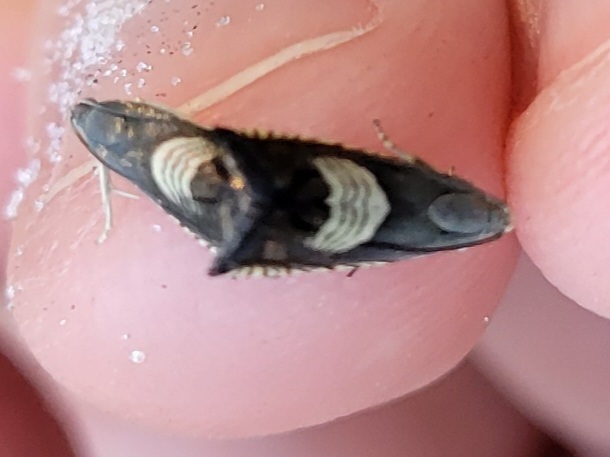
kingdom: Animalia
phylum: Arthropoda
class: Insecta
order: Lepidoptera
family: Tortricidae
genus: Grapholita
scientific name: Grapholita tristrigana
